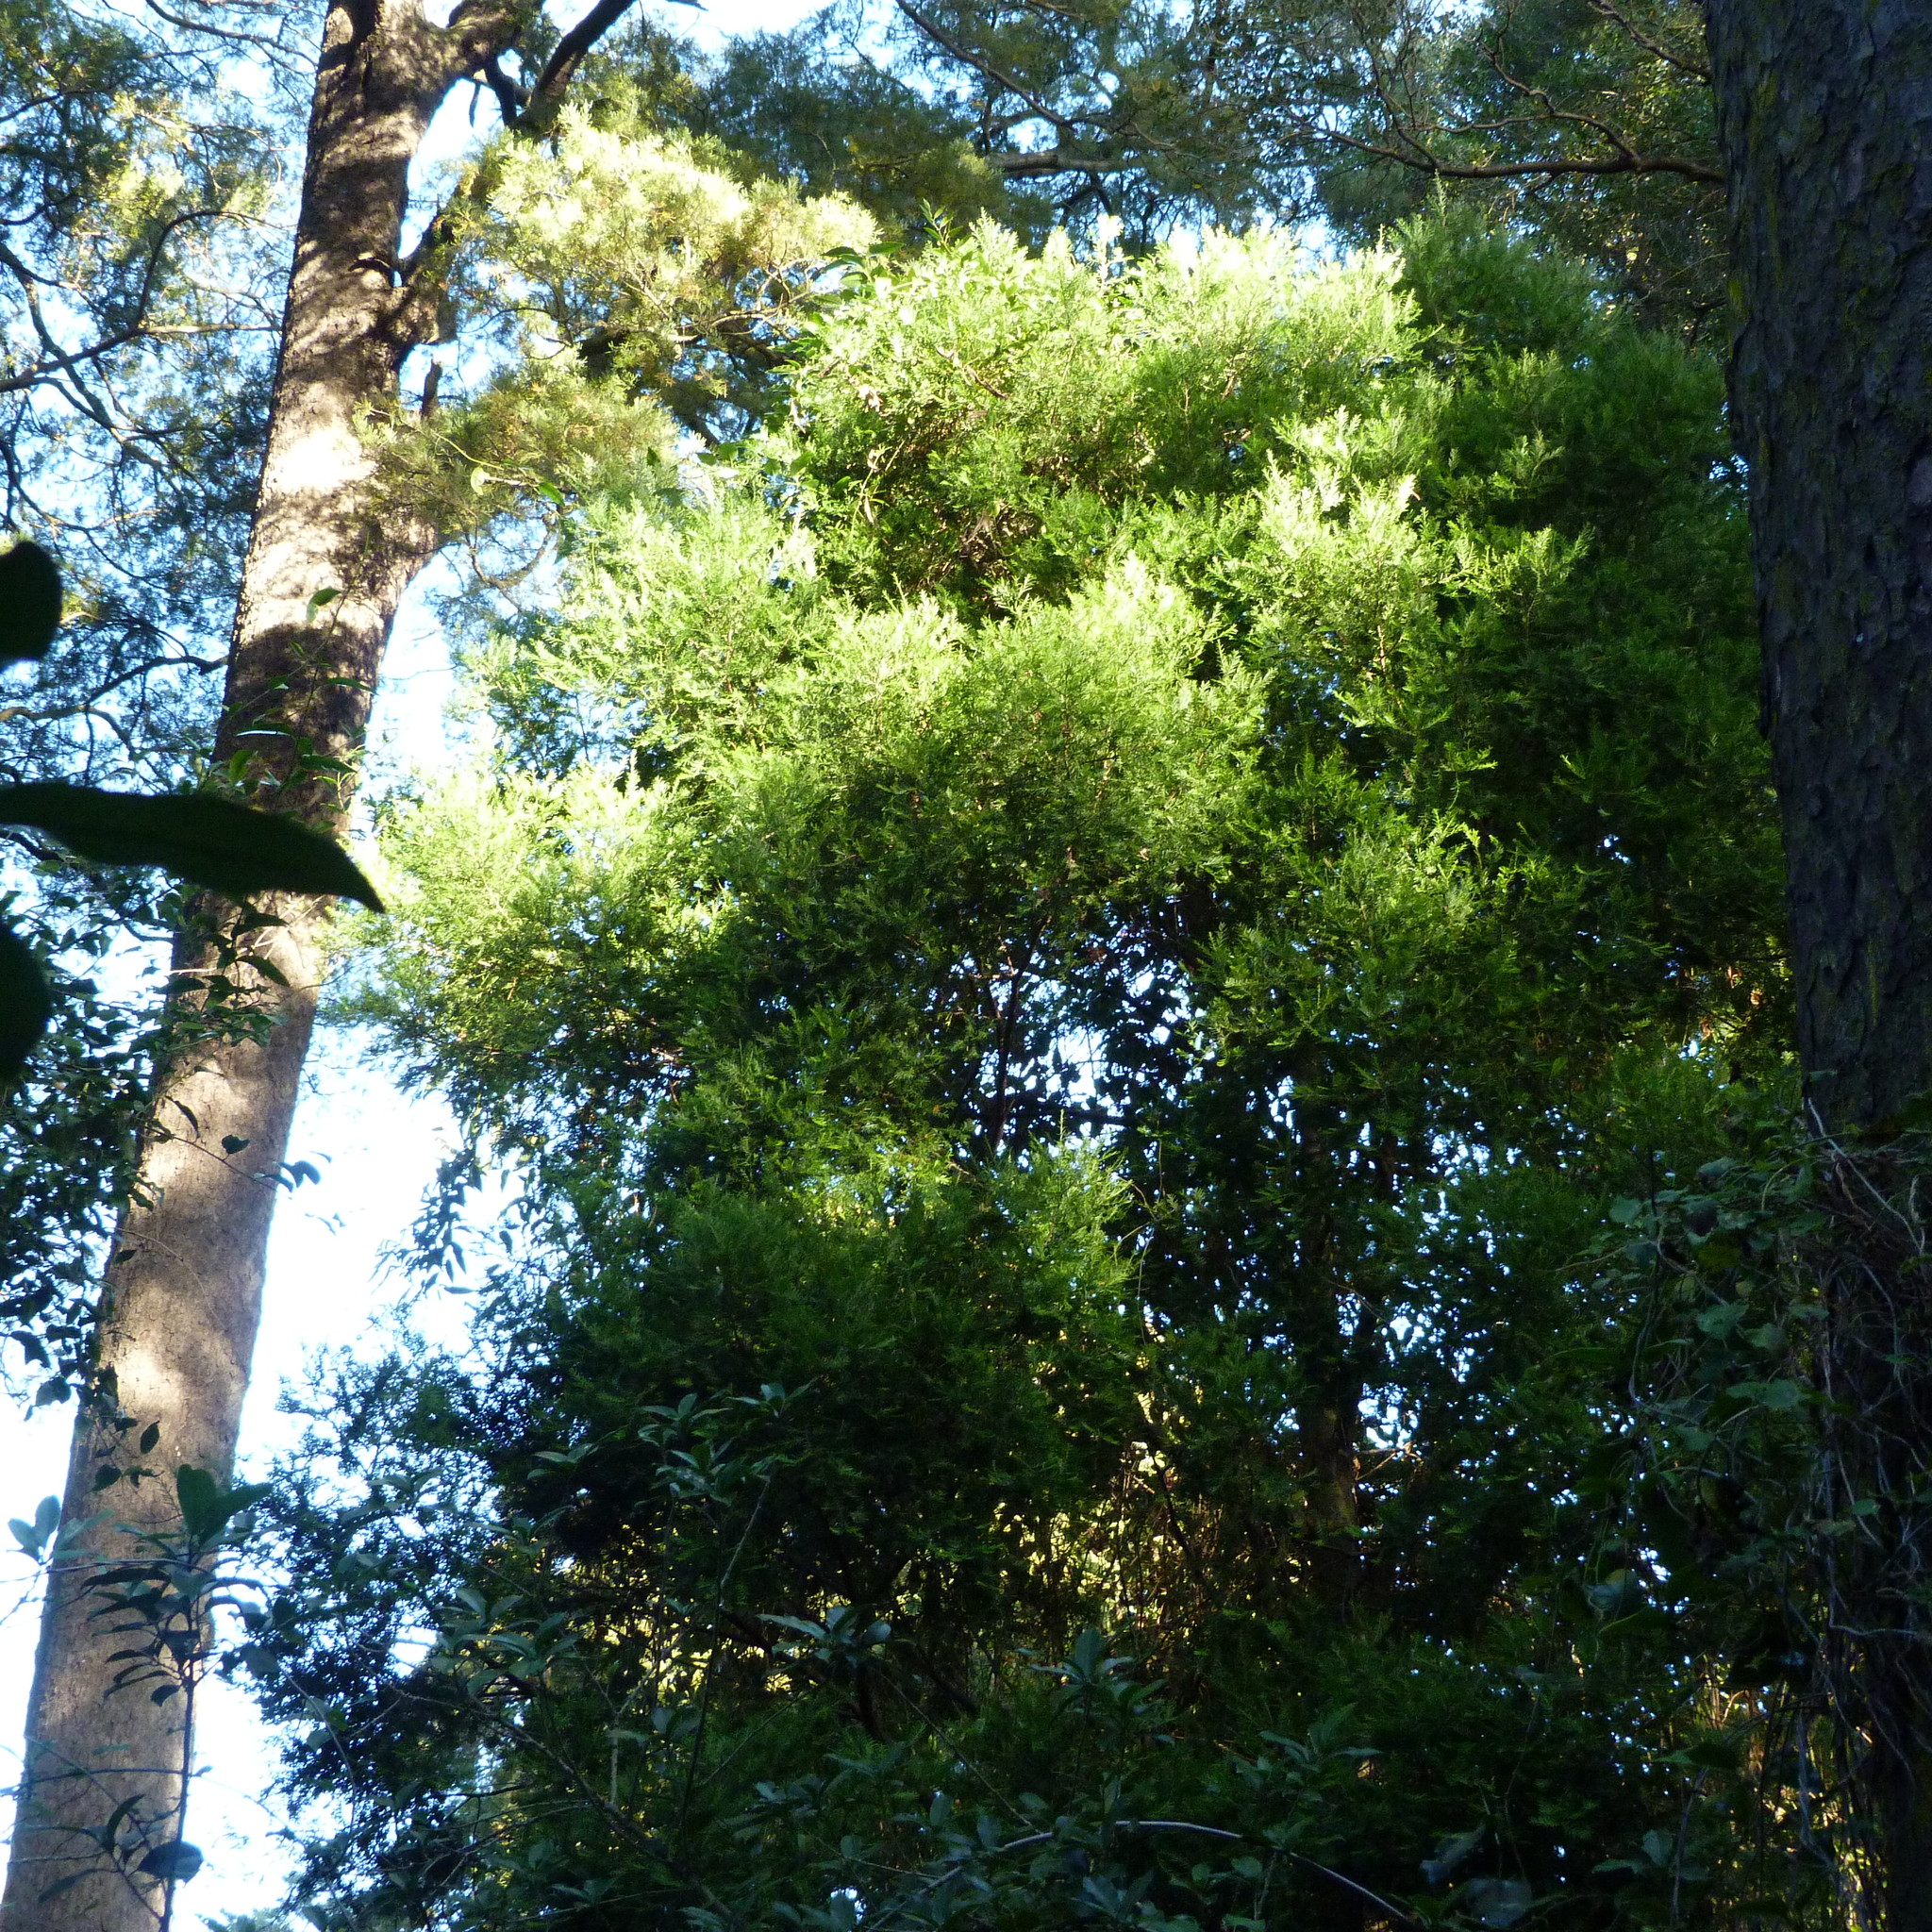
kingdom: Plantae
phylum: Tracheophyta
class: Pinopsida
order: Pinales
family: Podocarpaceae
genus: Prumnopitys
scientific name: Prumnopitys taxifolia
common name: Matai
